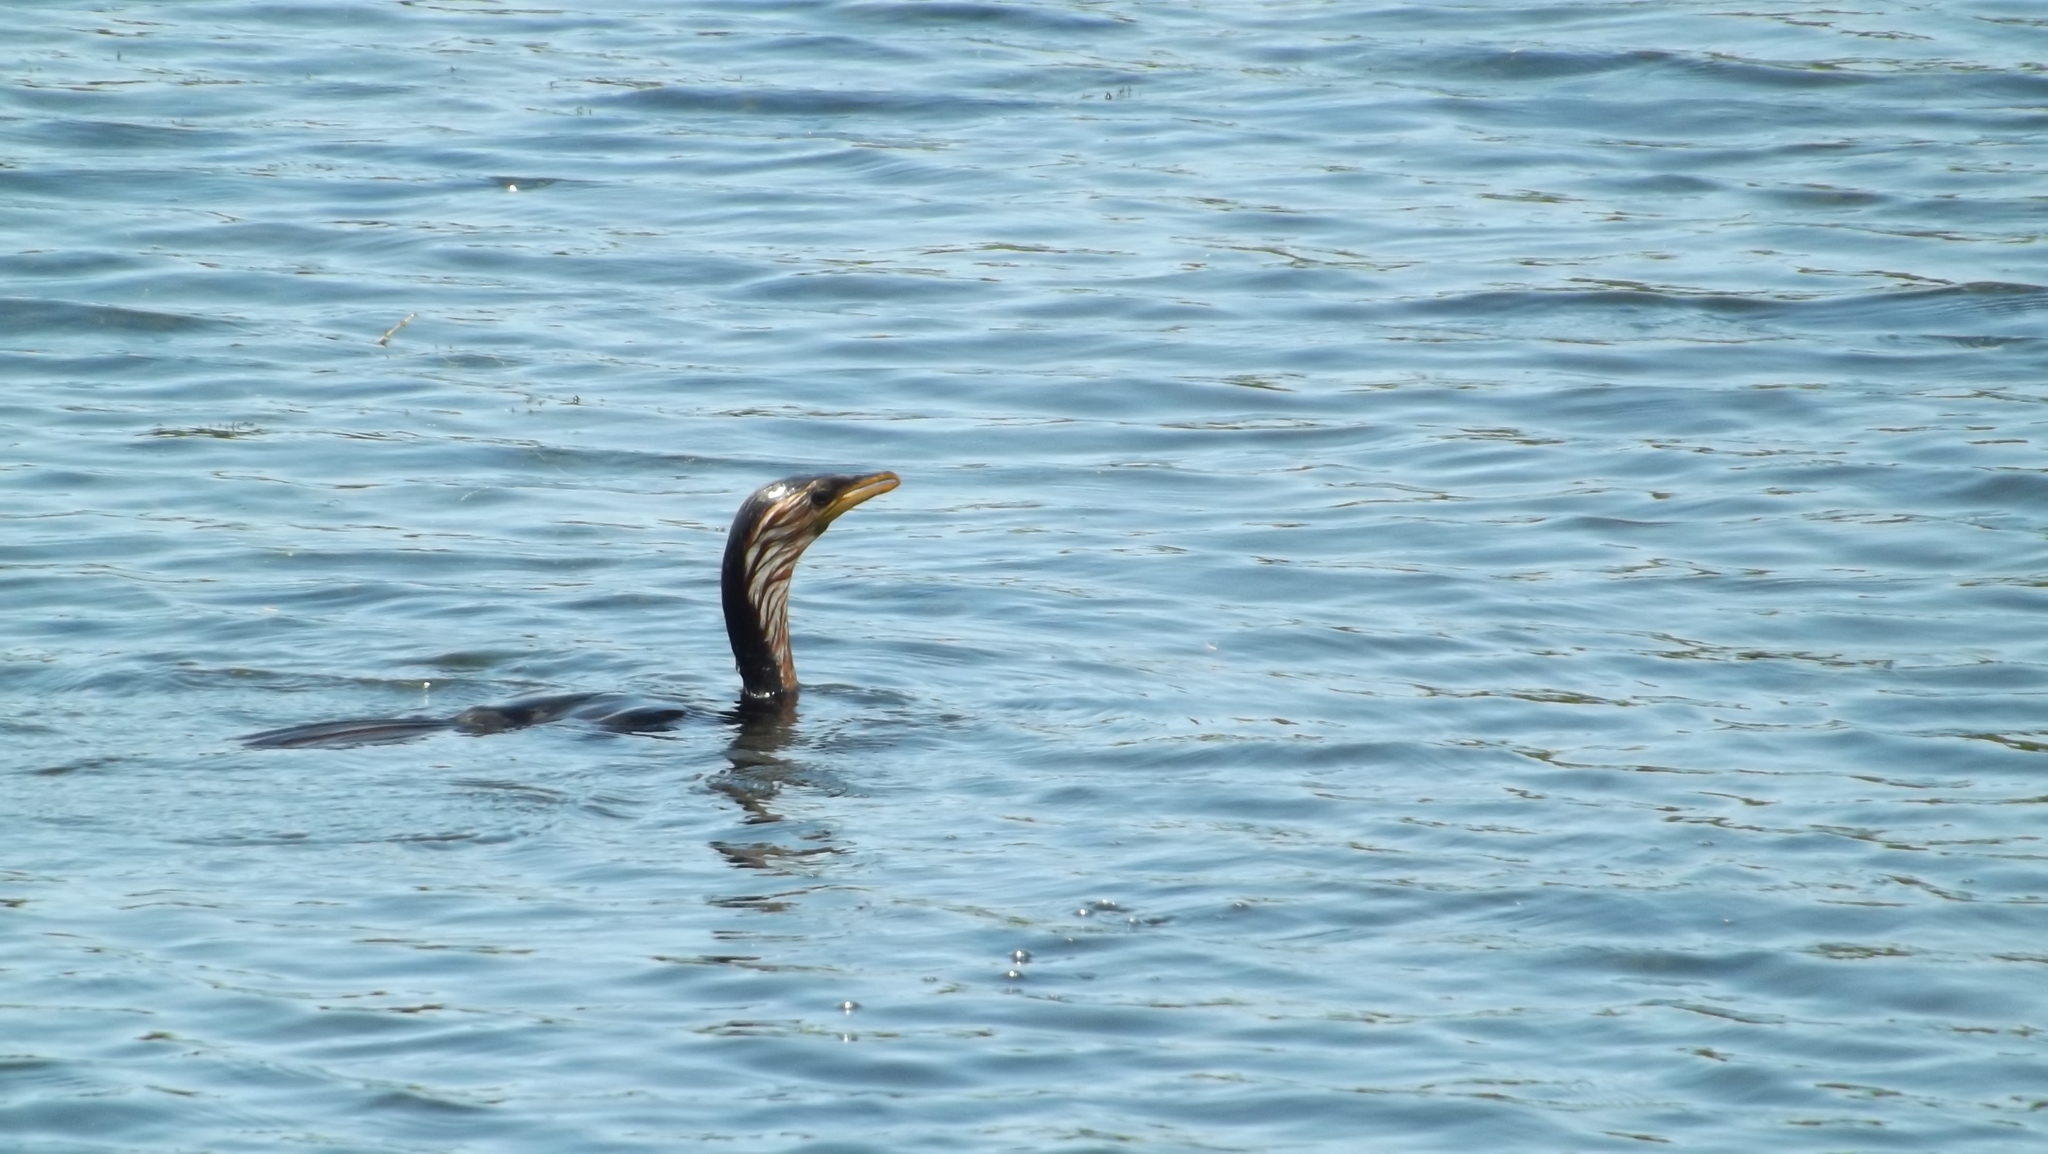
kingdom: Animalia
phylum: Chordata
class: Aves
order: Suliformes
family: Phalacrocoracidae
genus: Microcarbo
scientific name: Microcarbo melanoleucos
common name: Little pied cormorant
